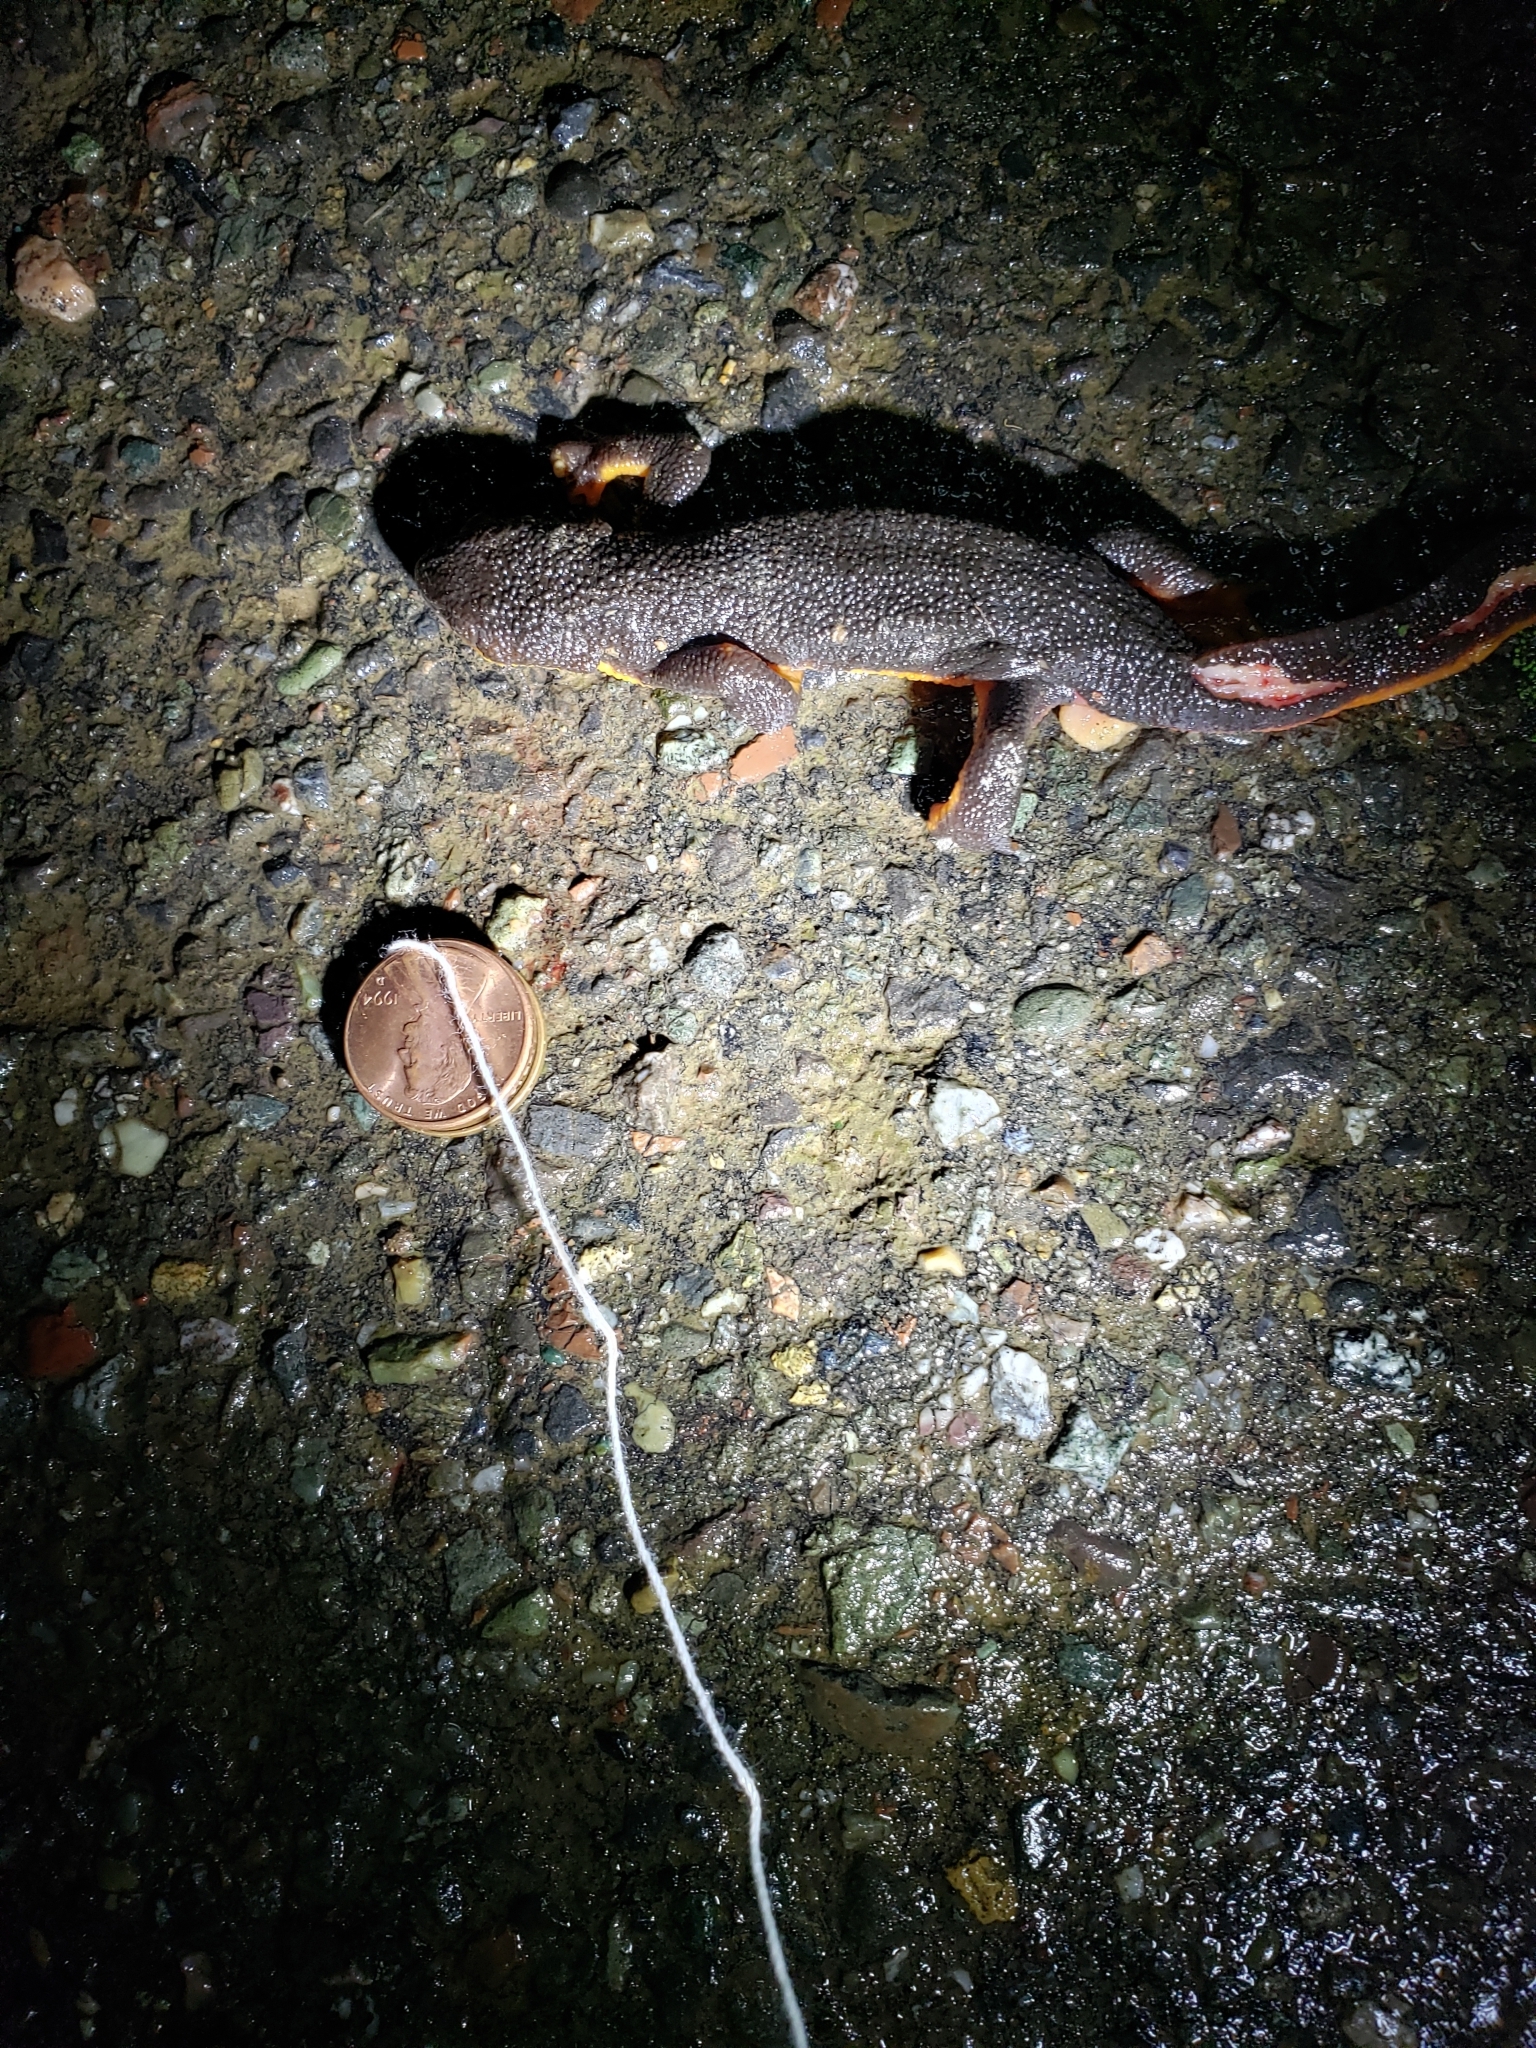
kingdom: Animalia
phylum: Chordata
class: Amphibia
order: Caudata
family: Salamandridae
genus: Taricha
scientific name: Taricha granulosa
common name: Roughskin newt
